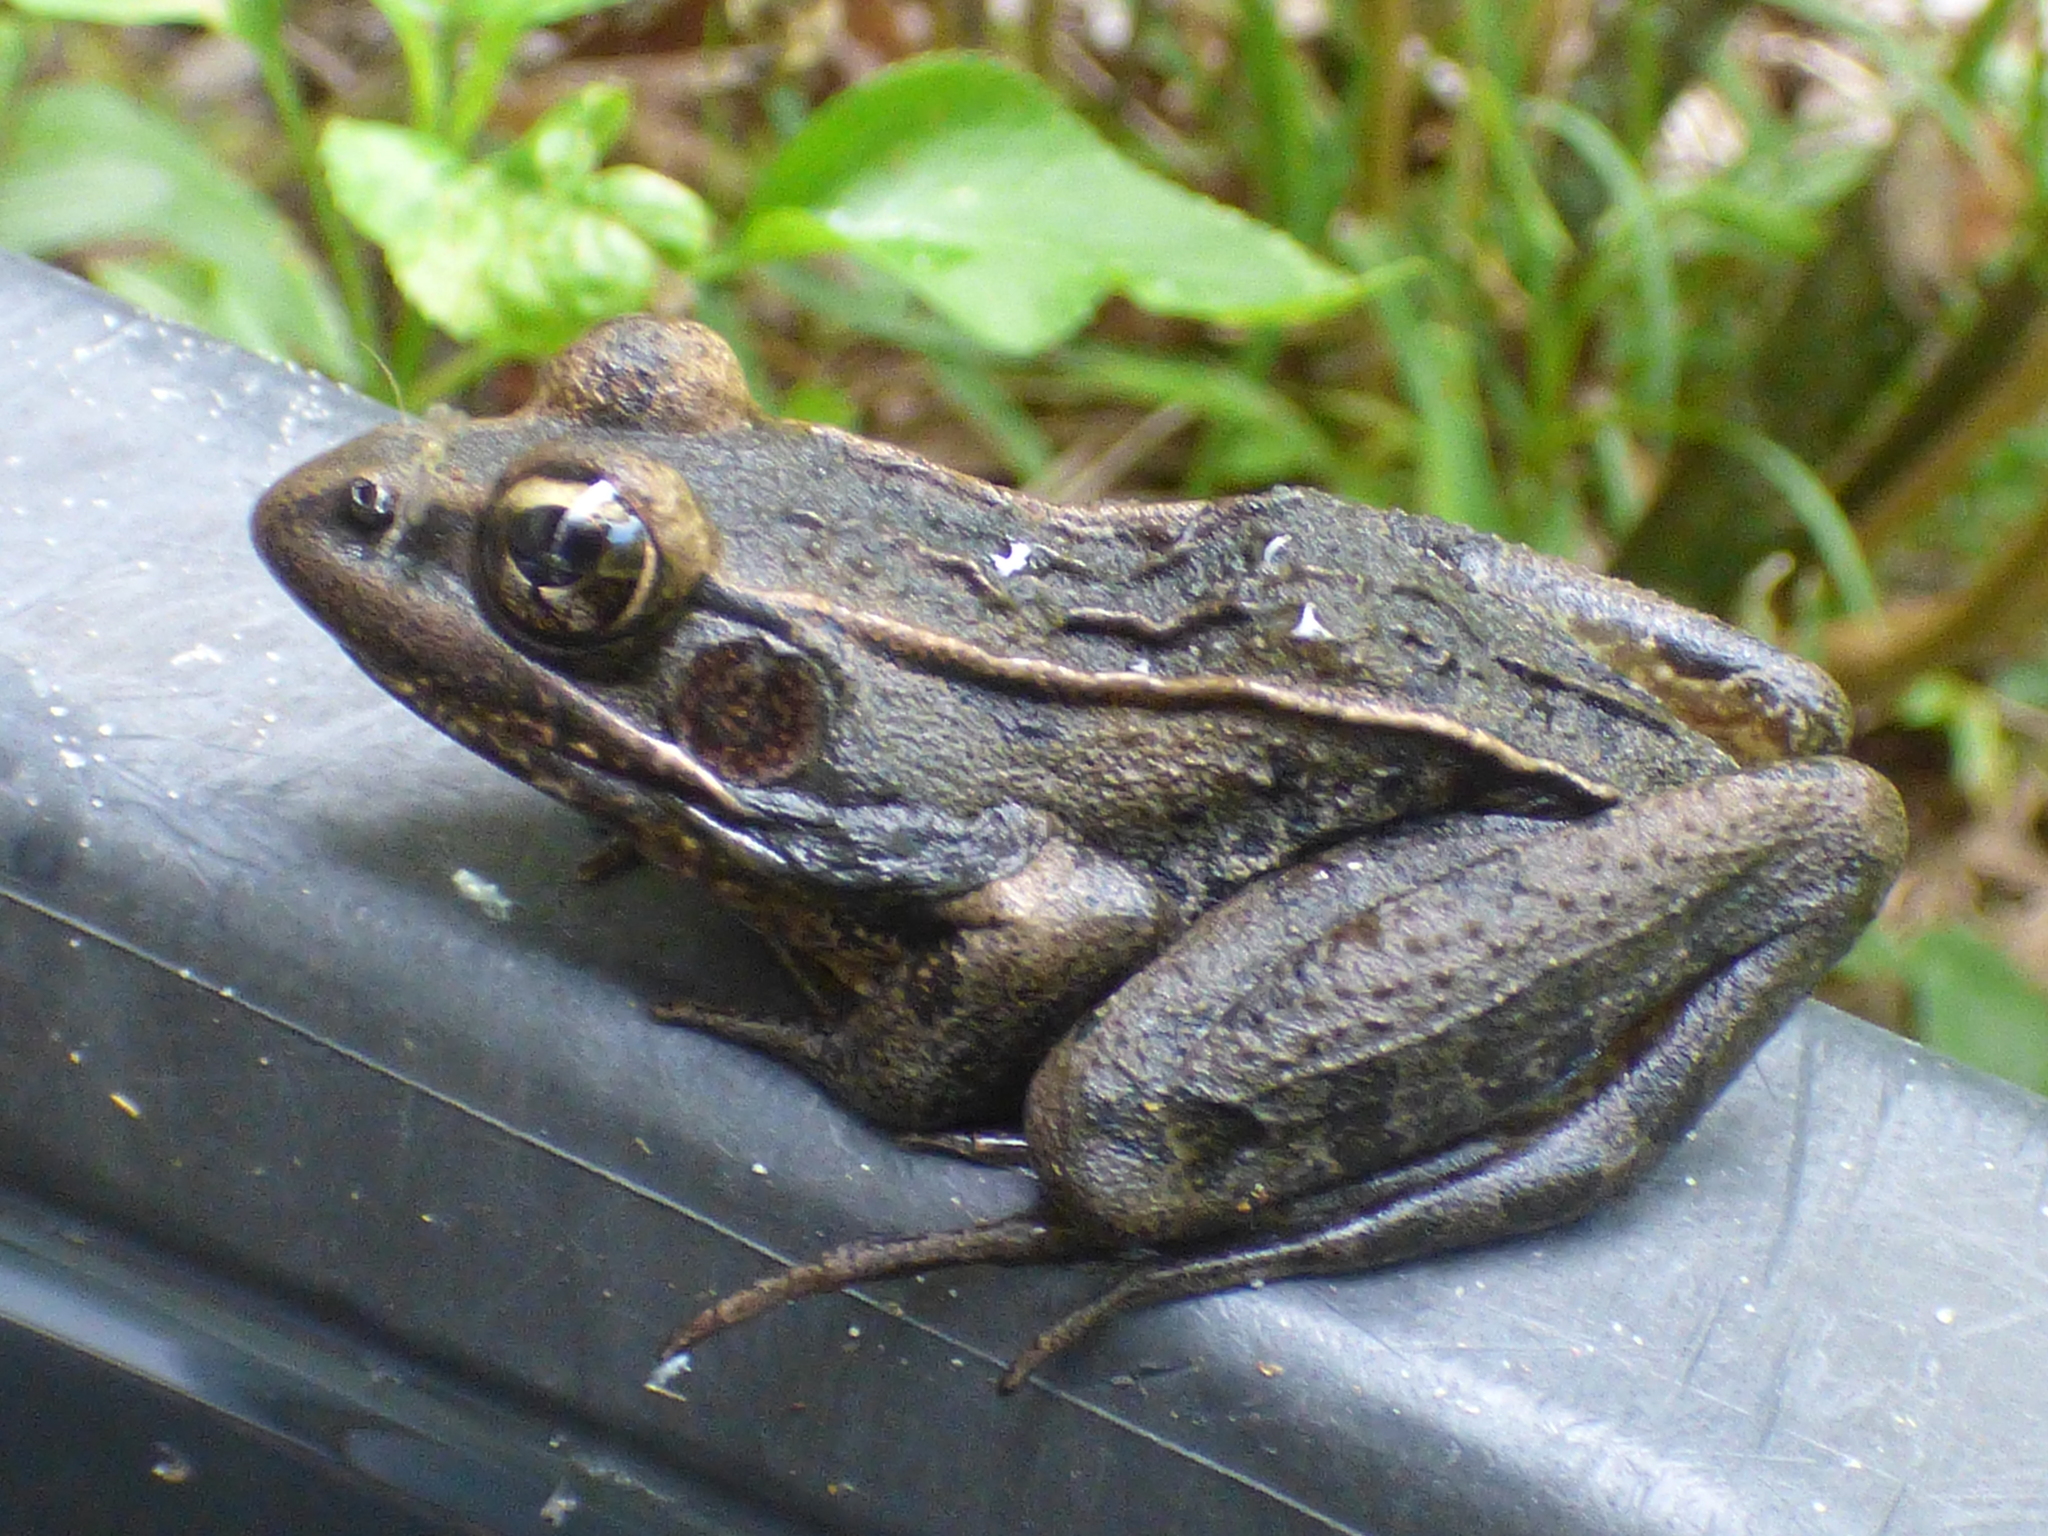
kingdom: Animalia
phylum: Chordata
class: Amphibia
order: Anura
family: Ranidae
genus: Lithobates
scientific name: Lithobates sphenocephalus
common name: Southern leopard frog
